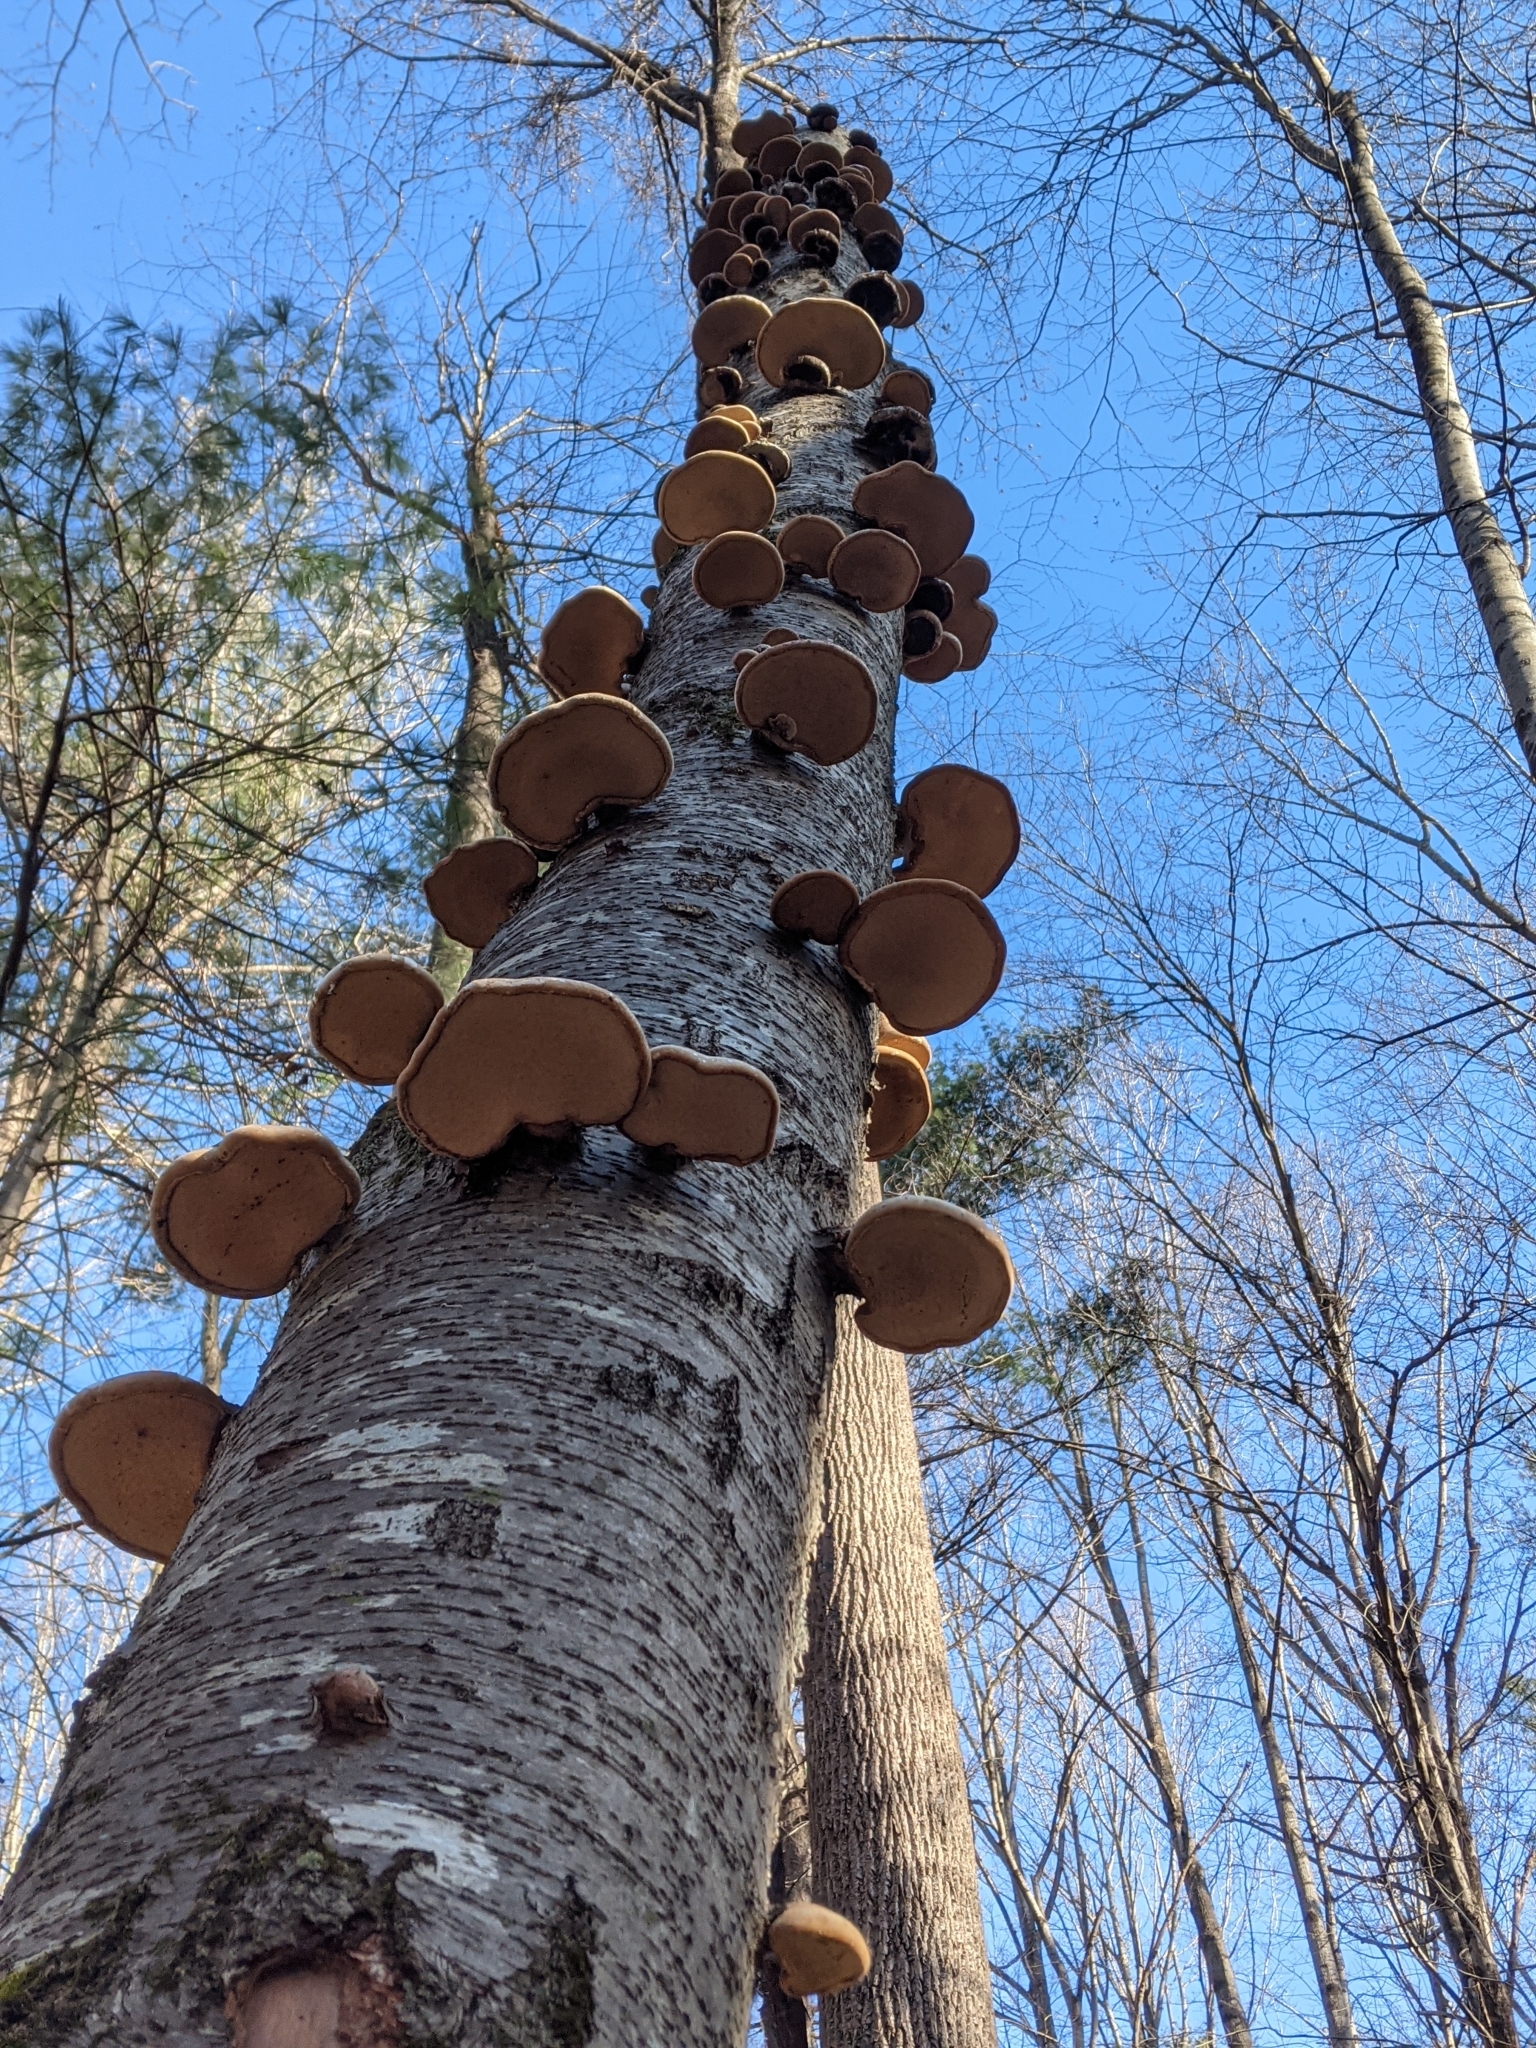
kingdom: Fungi
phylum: Basidiomycota
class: Agaricomycetes
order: Polyporales
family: Fomitopsidaceae
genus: Fomitopsis
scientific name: Fomitopsis betulina
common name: Birch polypore
